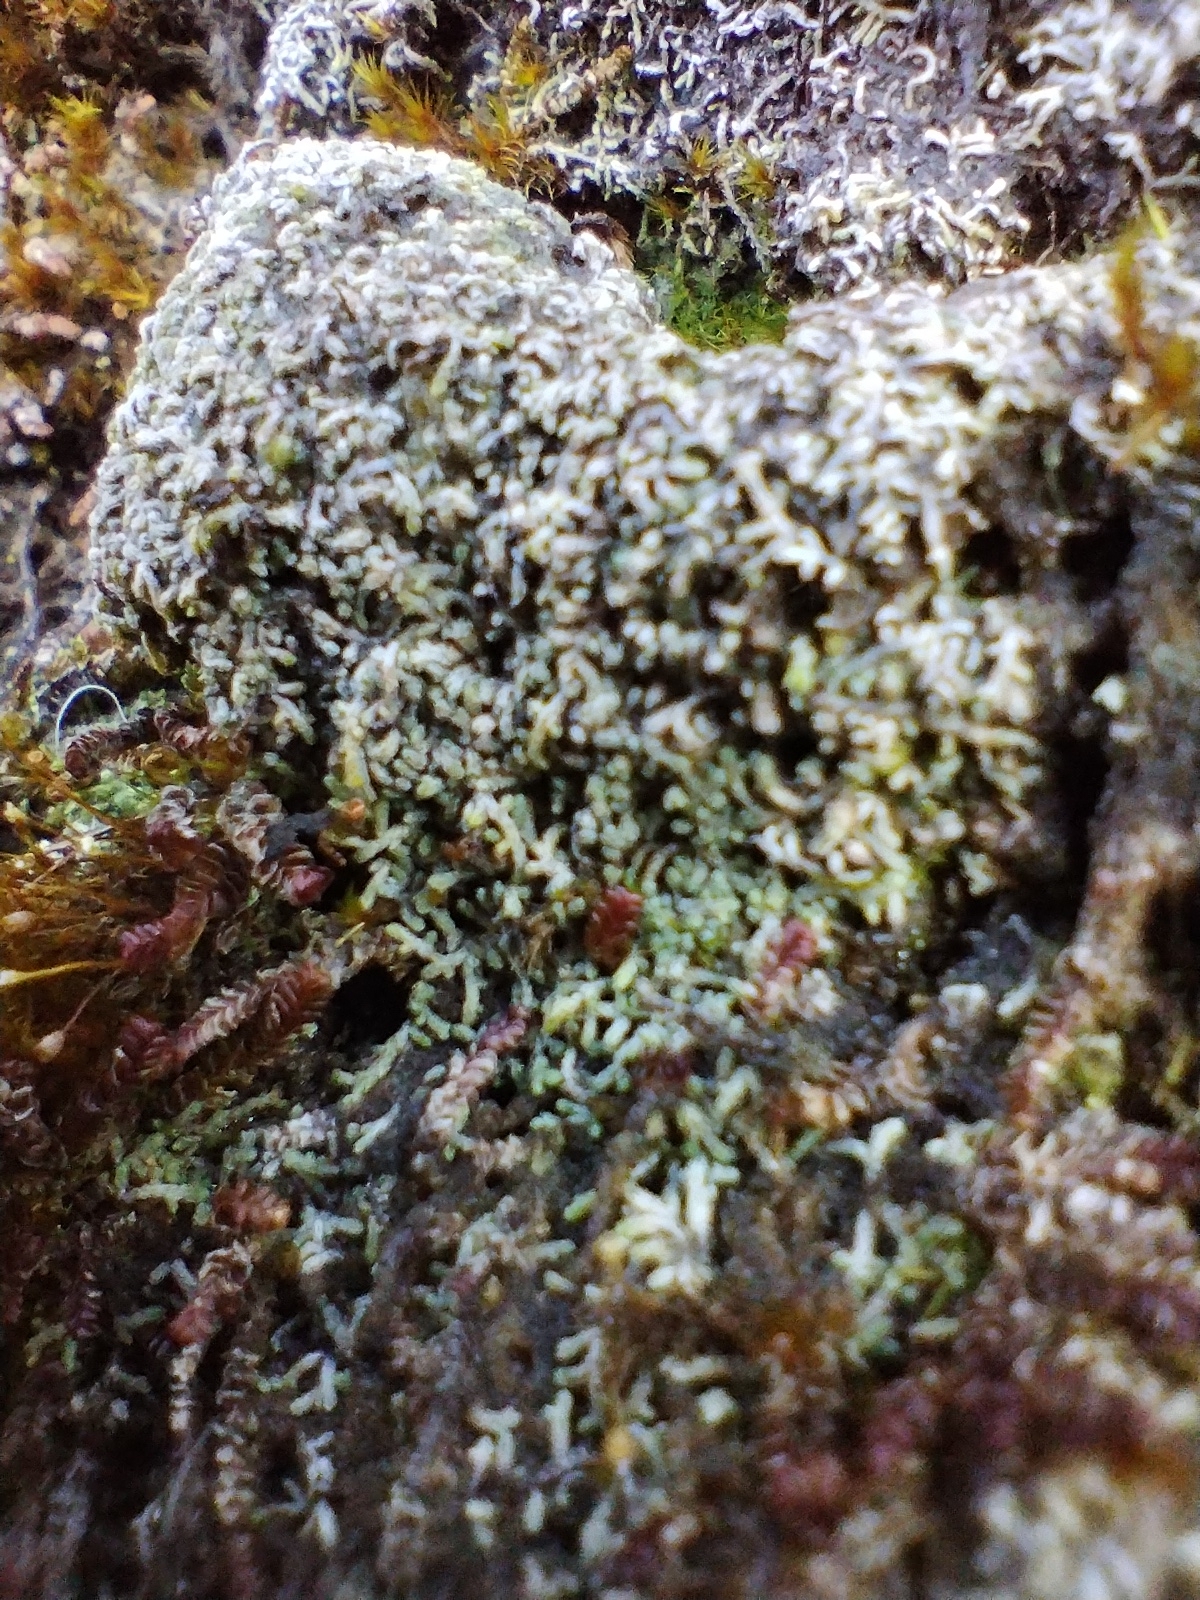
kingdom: Plantae
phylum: Marchantiophyta
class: Jungermanniopsida
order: Jungermanniales
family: Antheliaceae
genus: Anthelia
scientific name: Anthelia julacea
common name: Alpine silverwort
